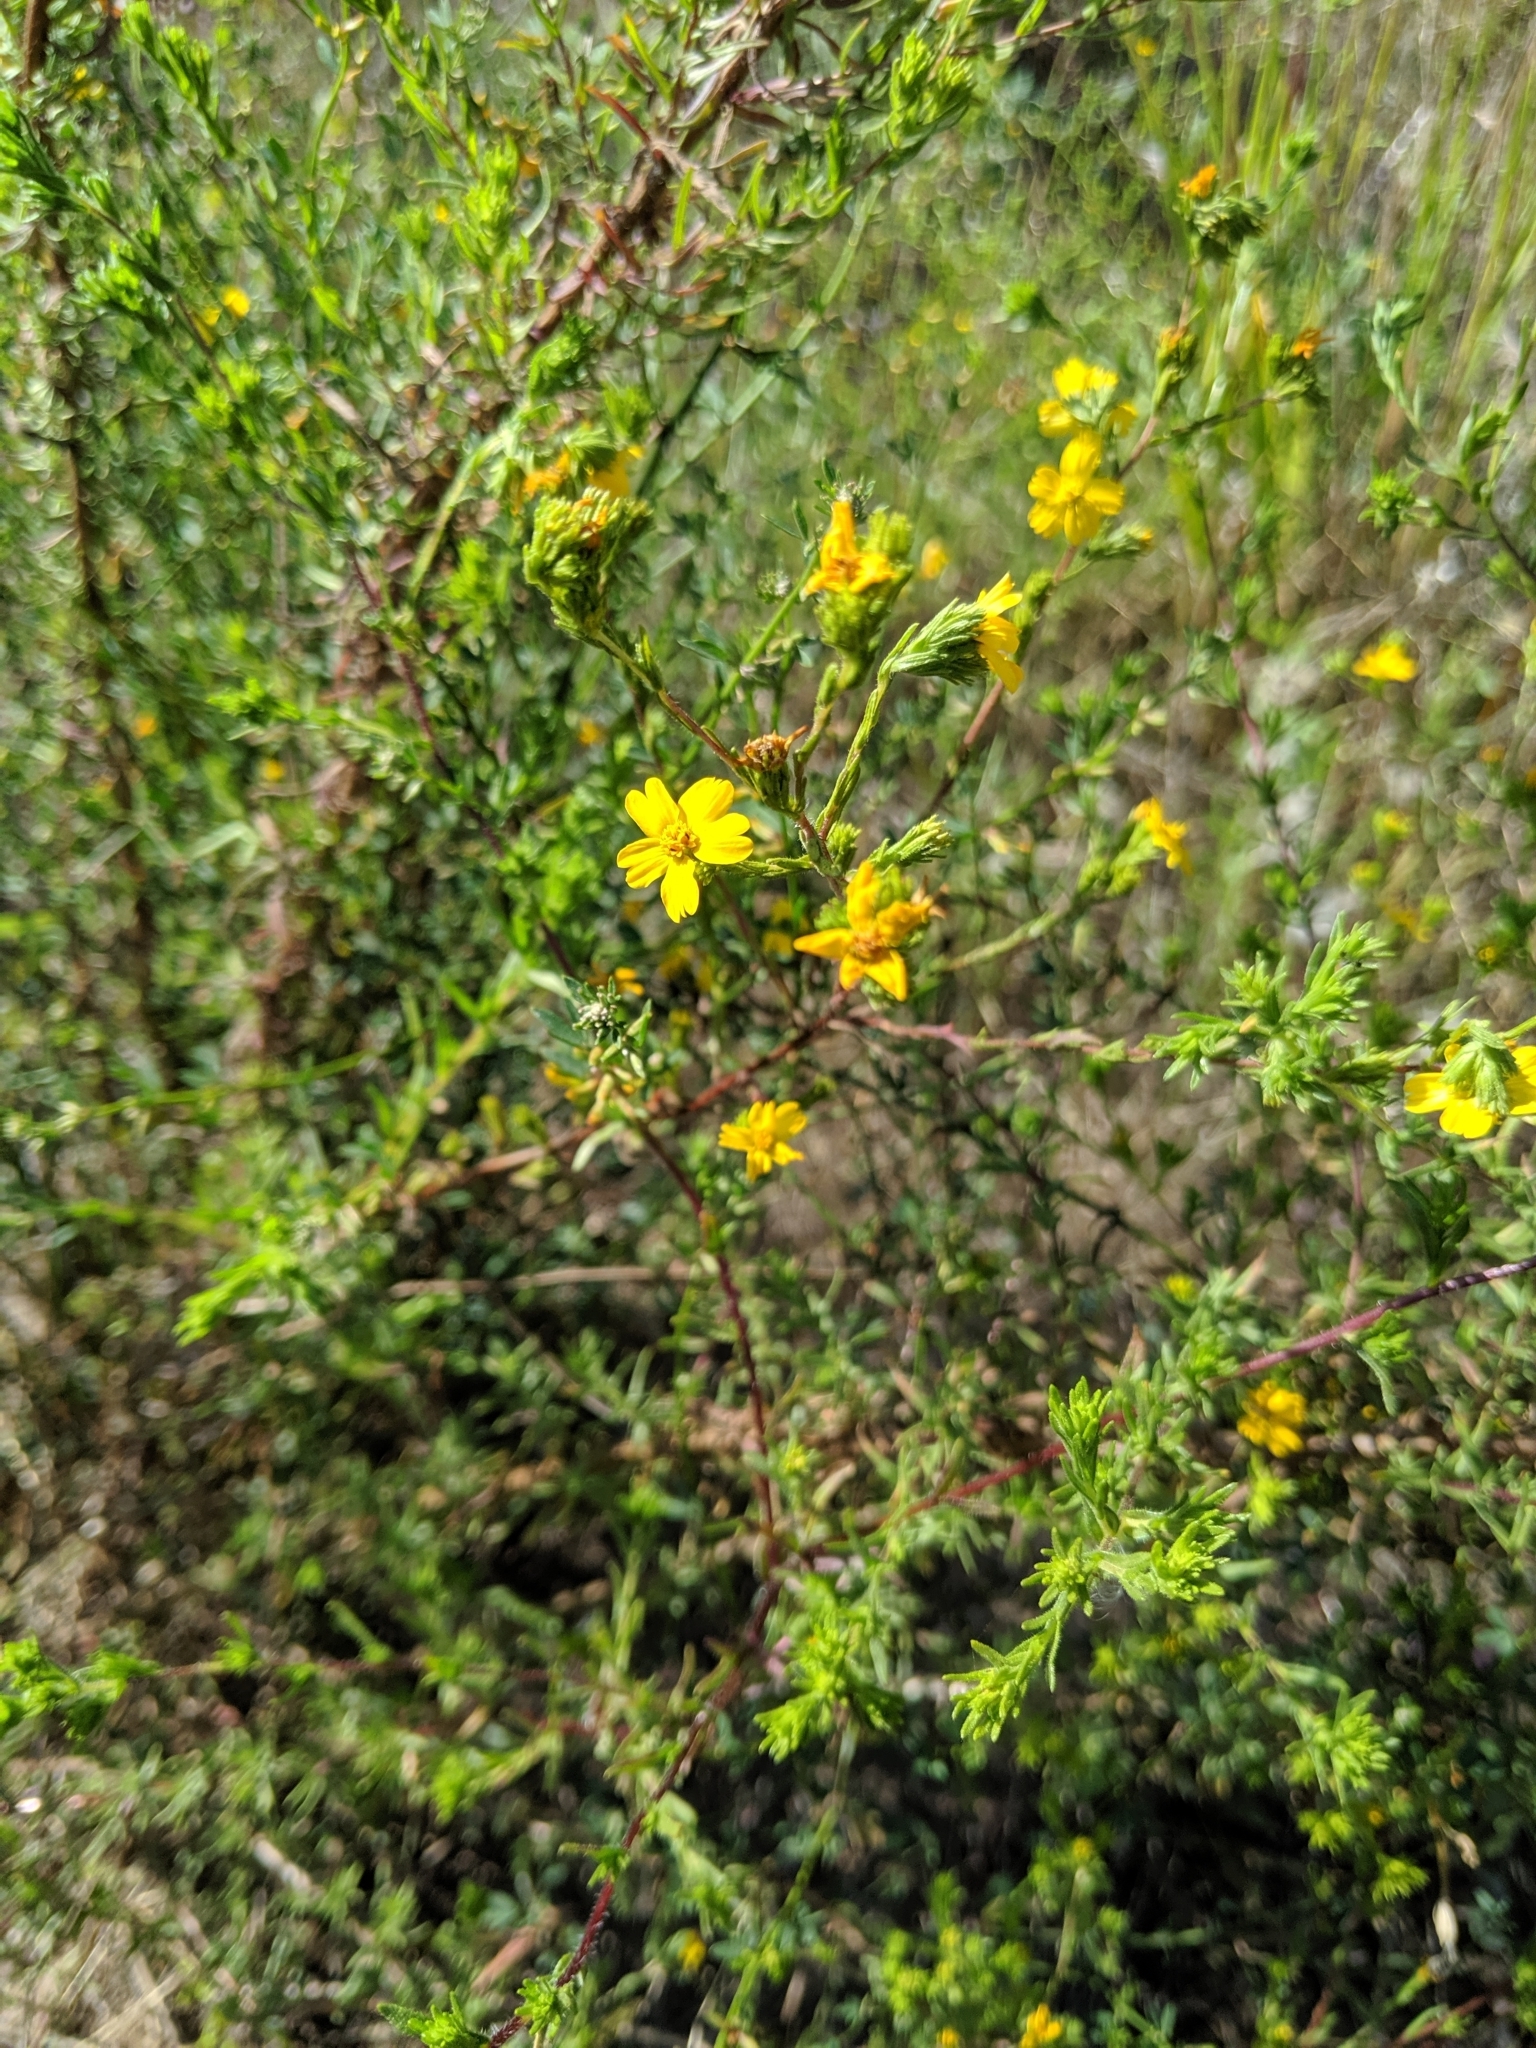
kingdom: Plantae
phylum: Tracheophyta
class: Magnoliopsida
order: Asterales
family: Asteraceae
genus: Deinandra
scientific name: Deinandra fasciculata
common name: Clustered tarweed
